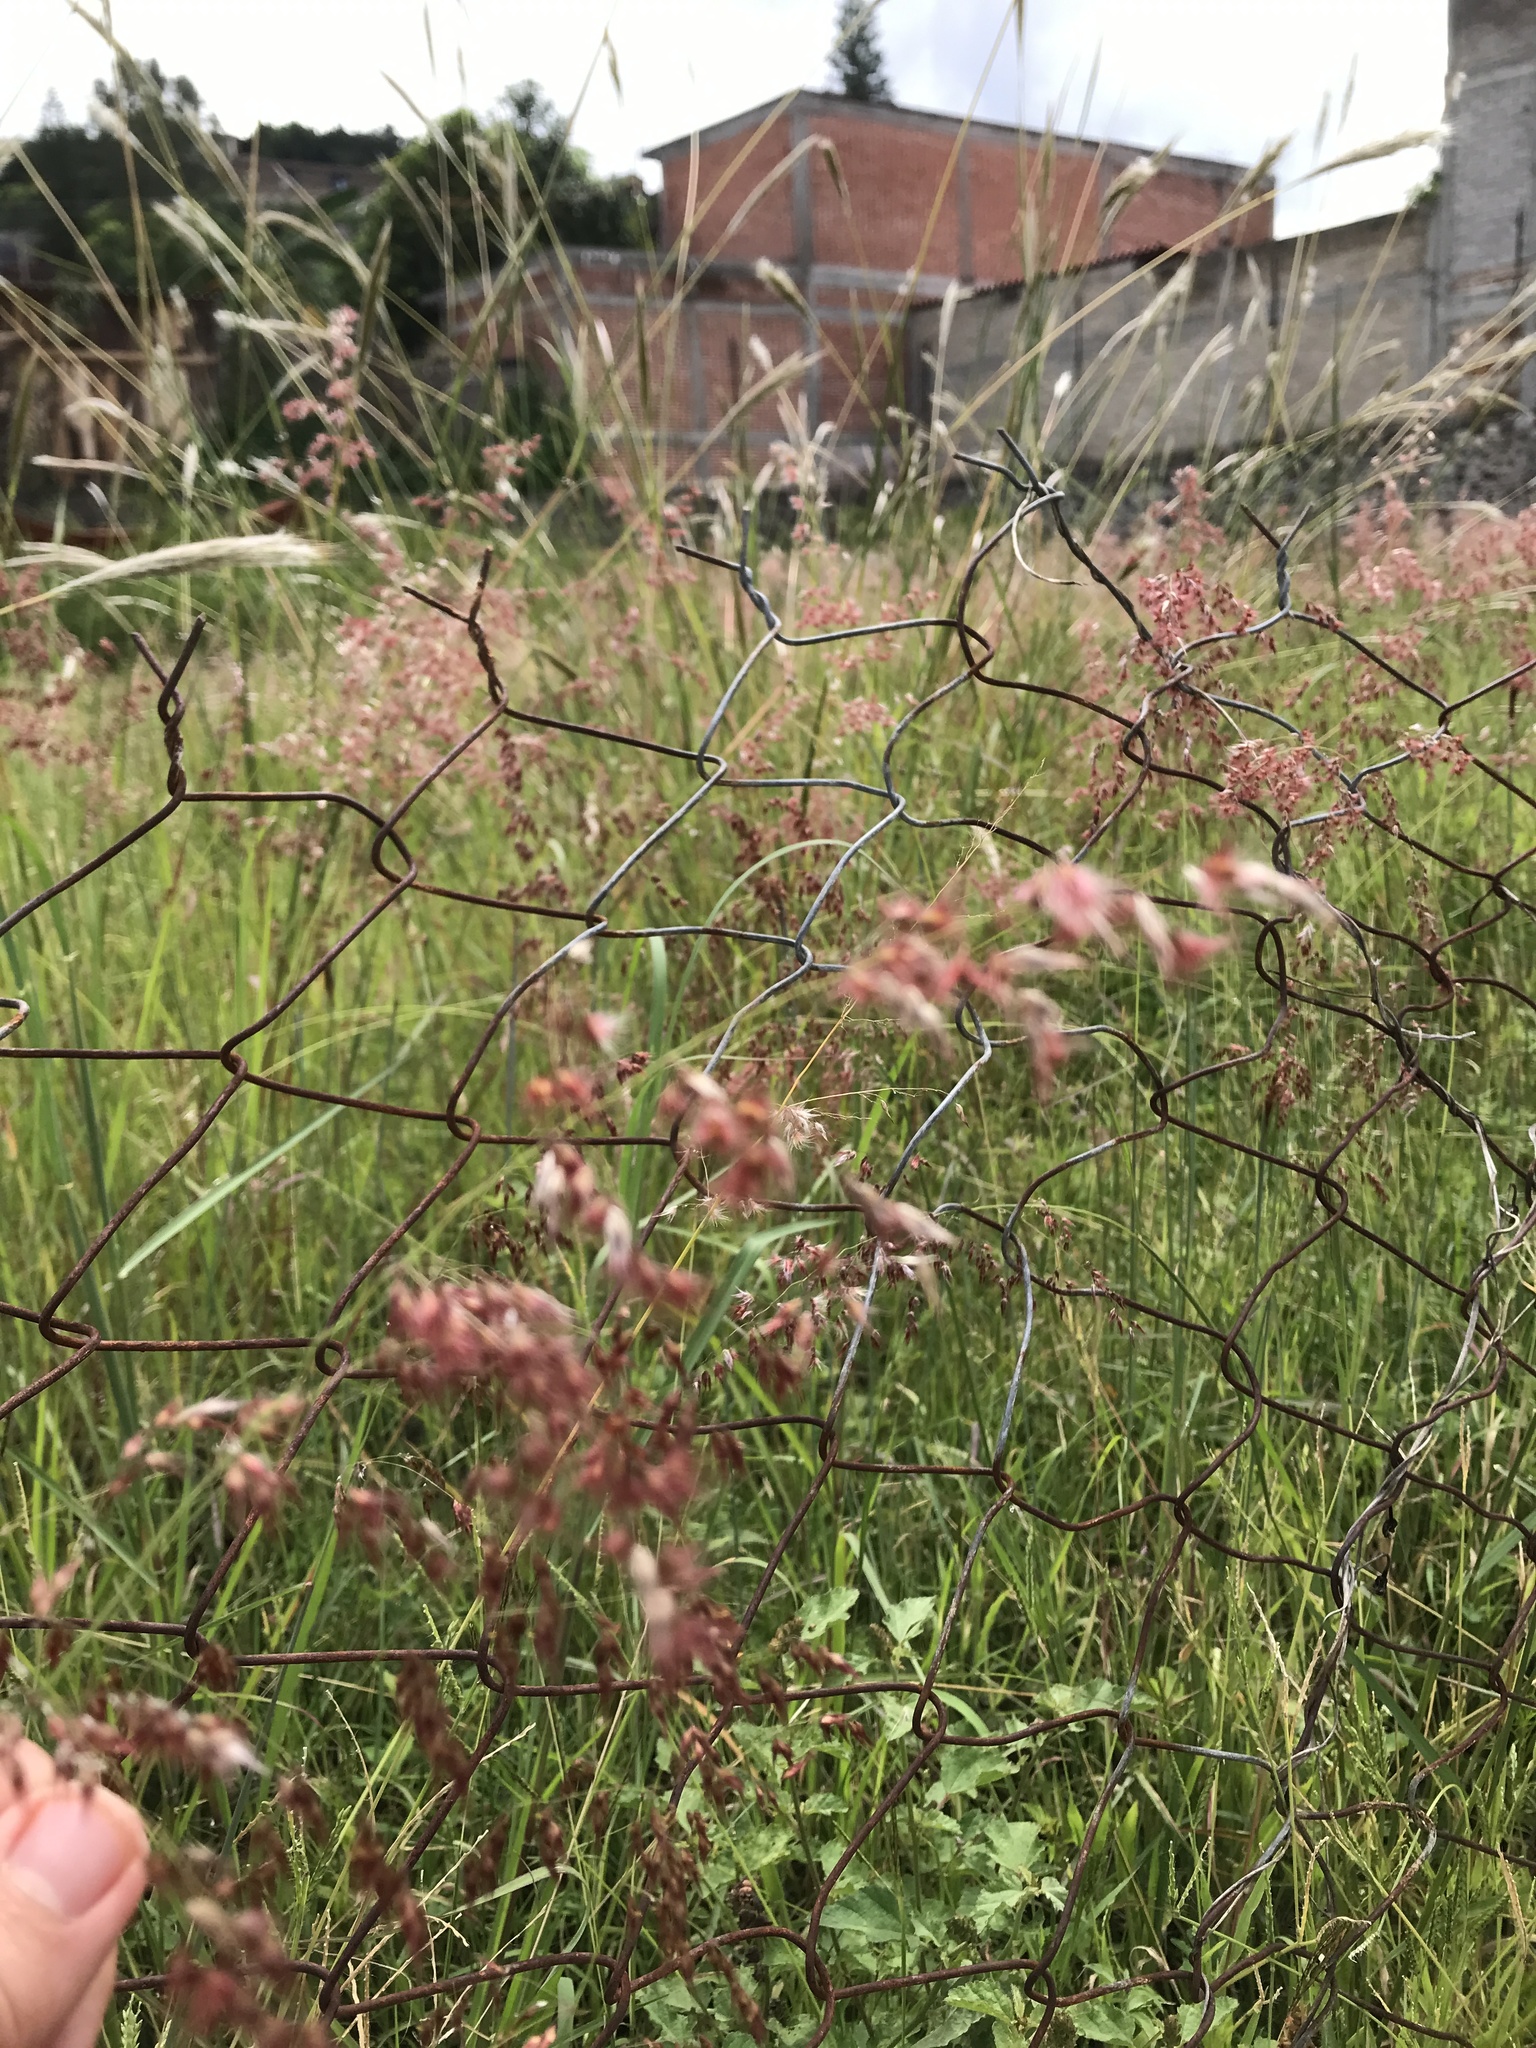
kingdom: Plantae
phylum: Tracheophyta
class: Liliopsida
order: Poales
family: Poaceae
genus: Melinis
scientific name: Melinis repens
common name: Rose natal grass
